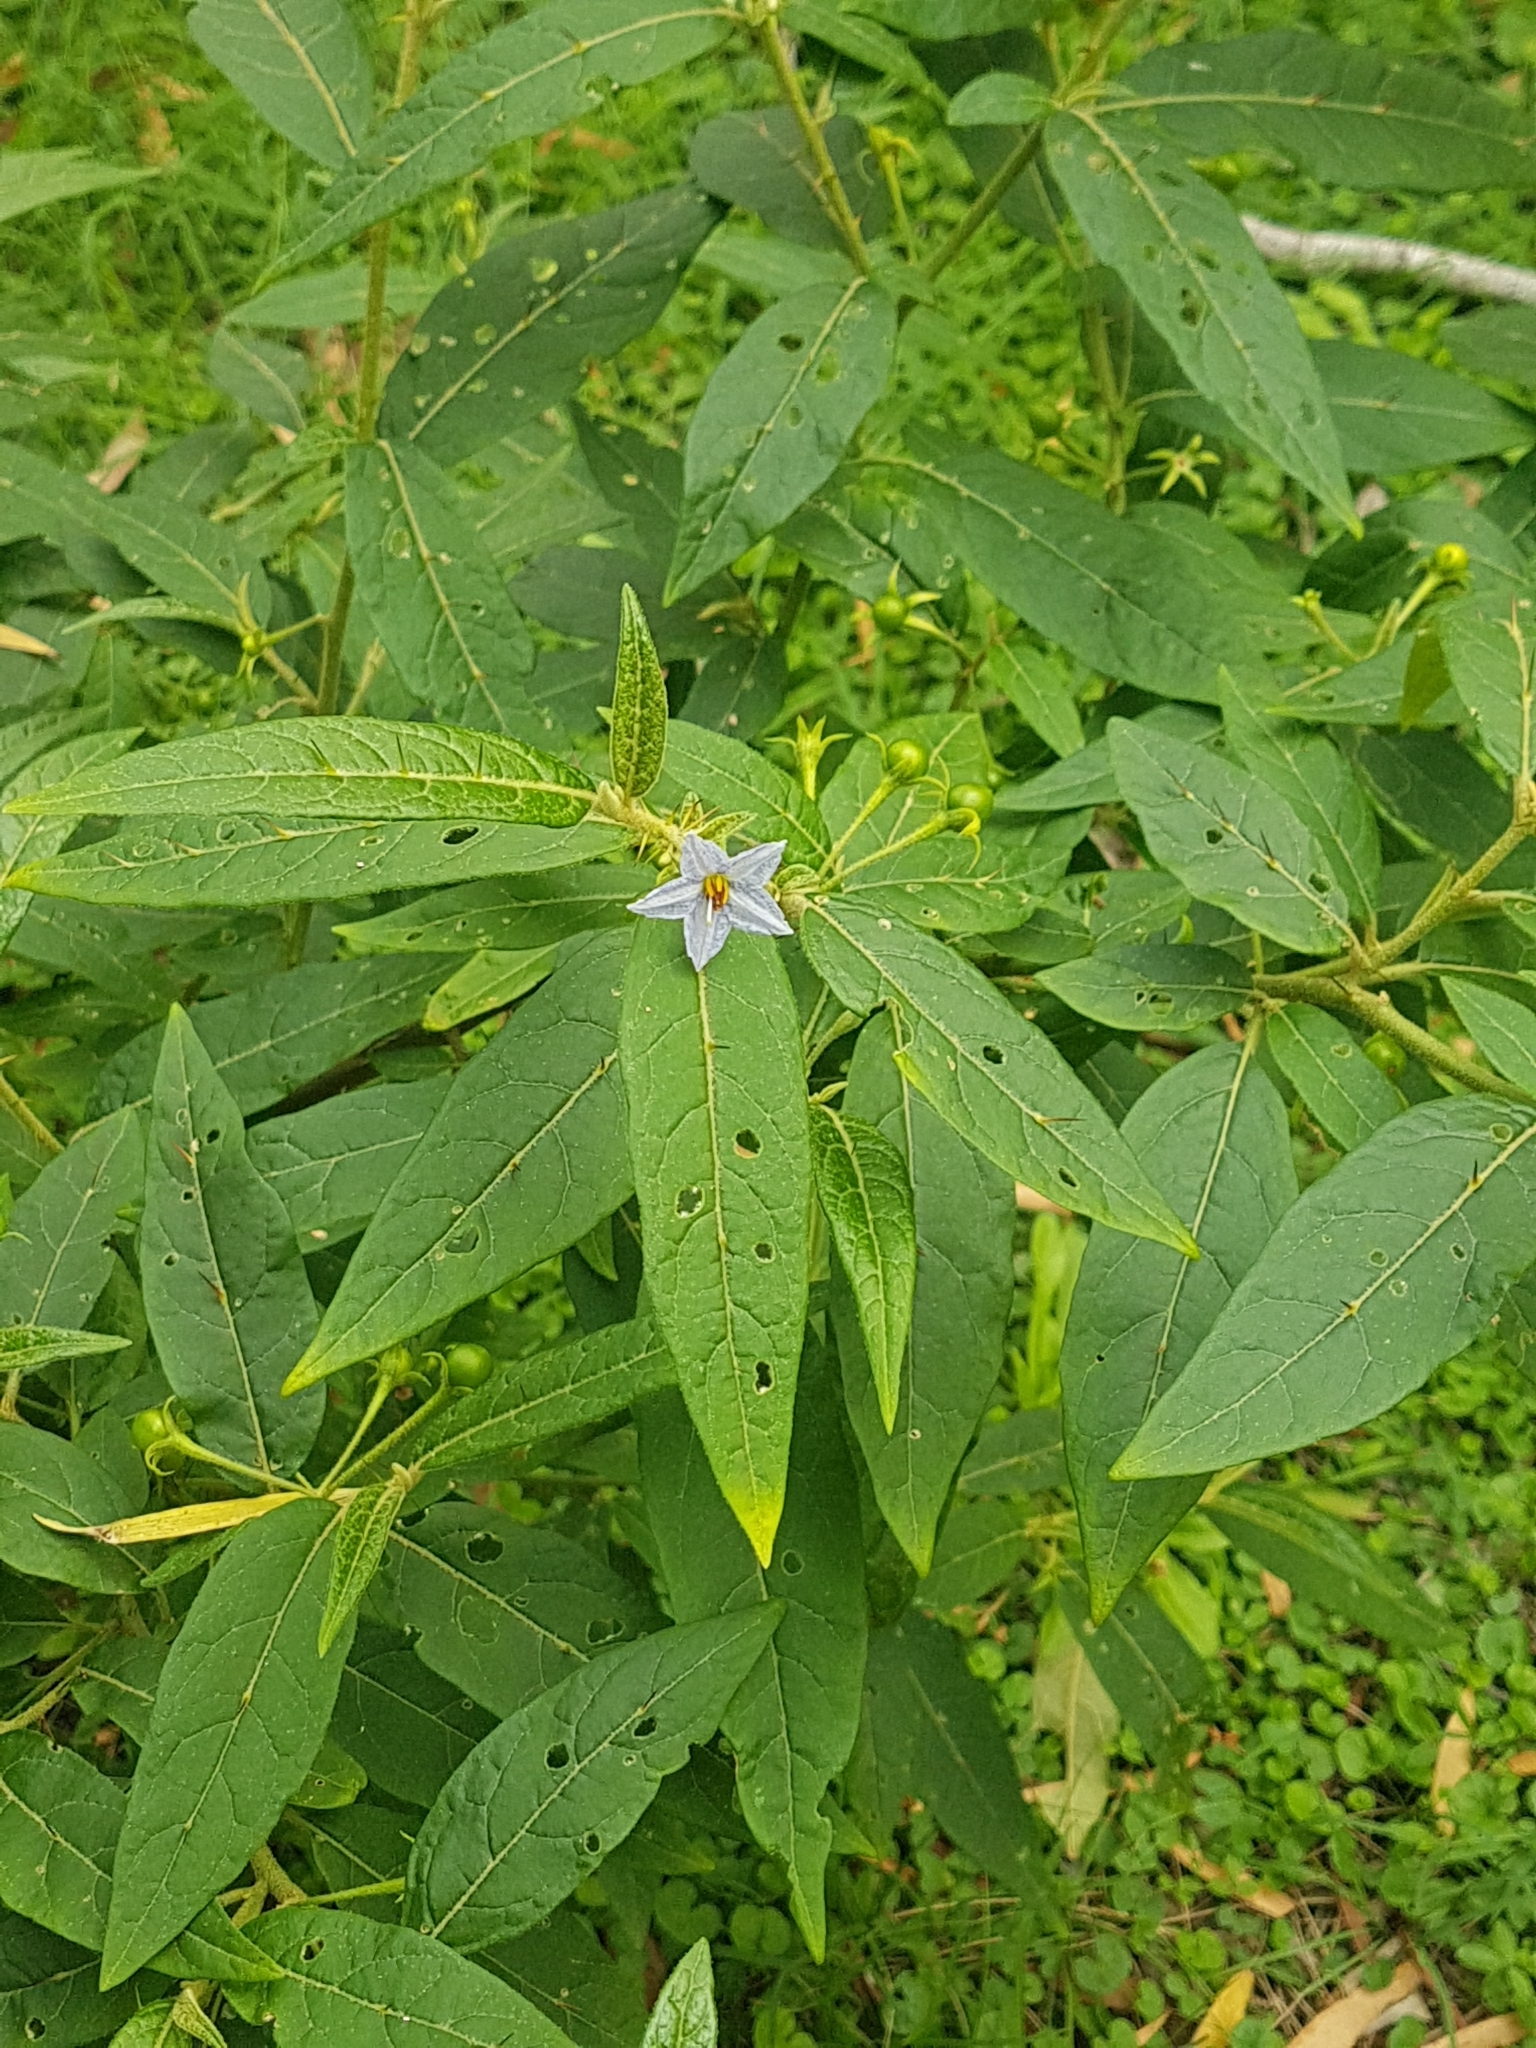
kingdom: Plantae
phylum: Tracheophyta
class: Magnoliopsida
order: Solanales
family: Solanaceae
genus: Solanum
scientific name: Solanum stelligerum
